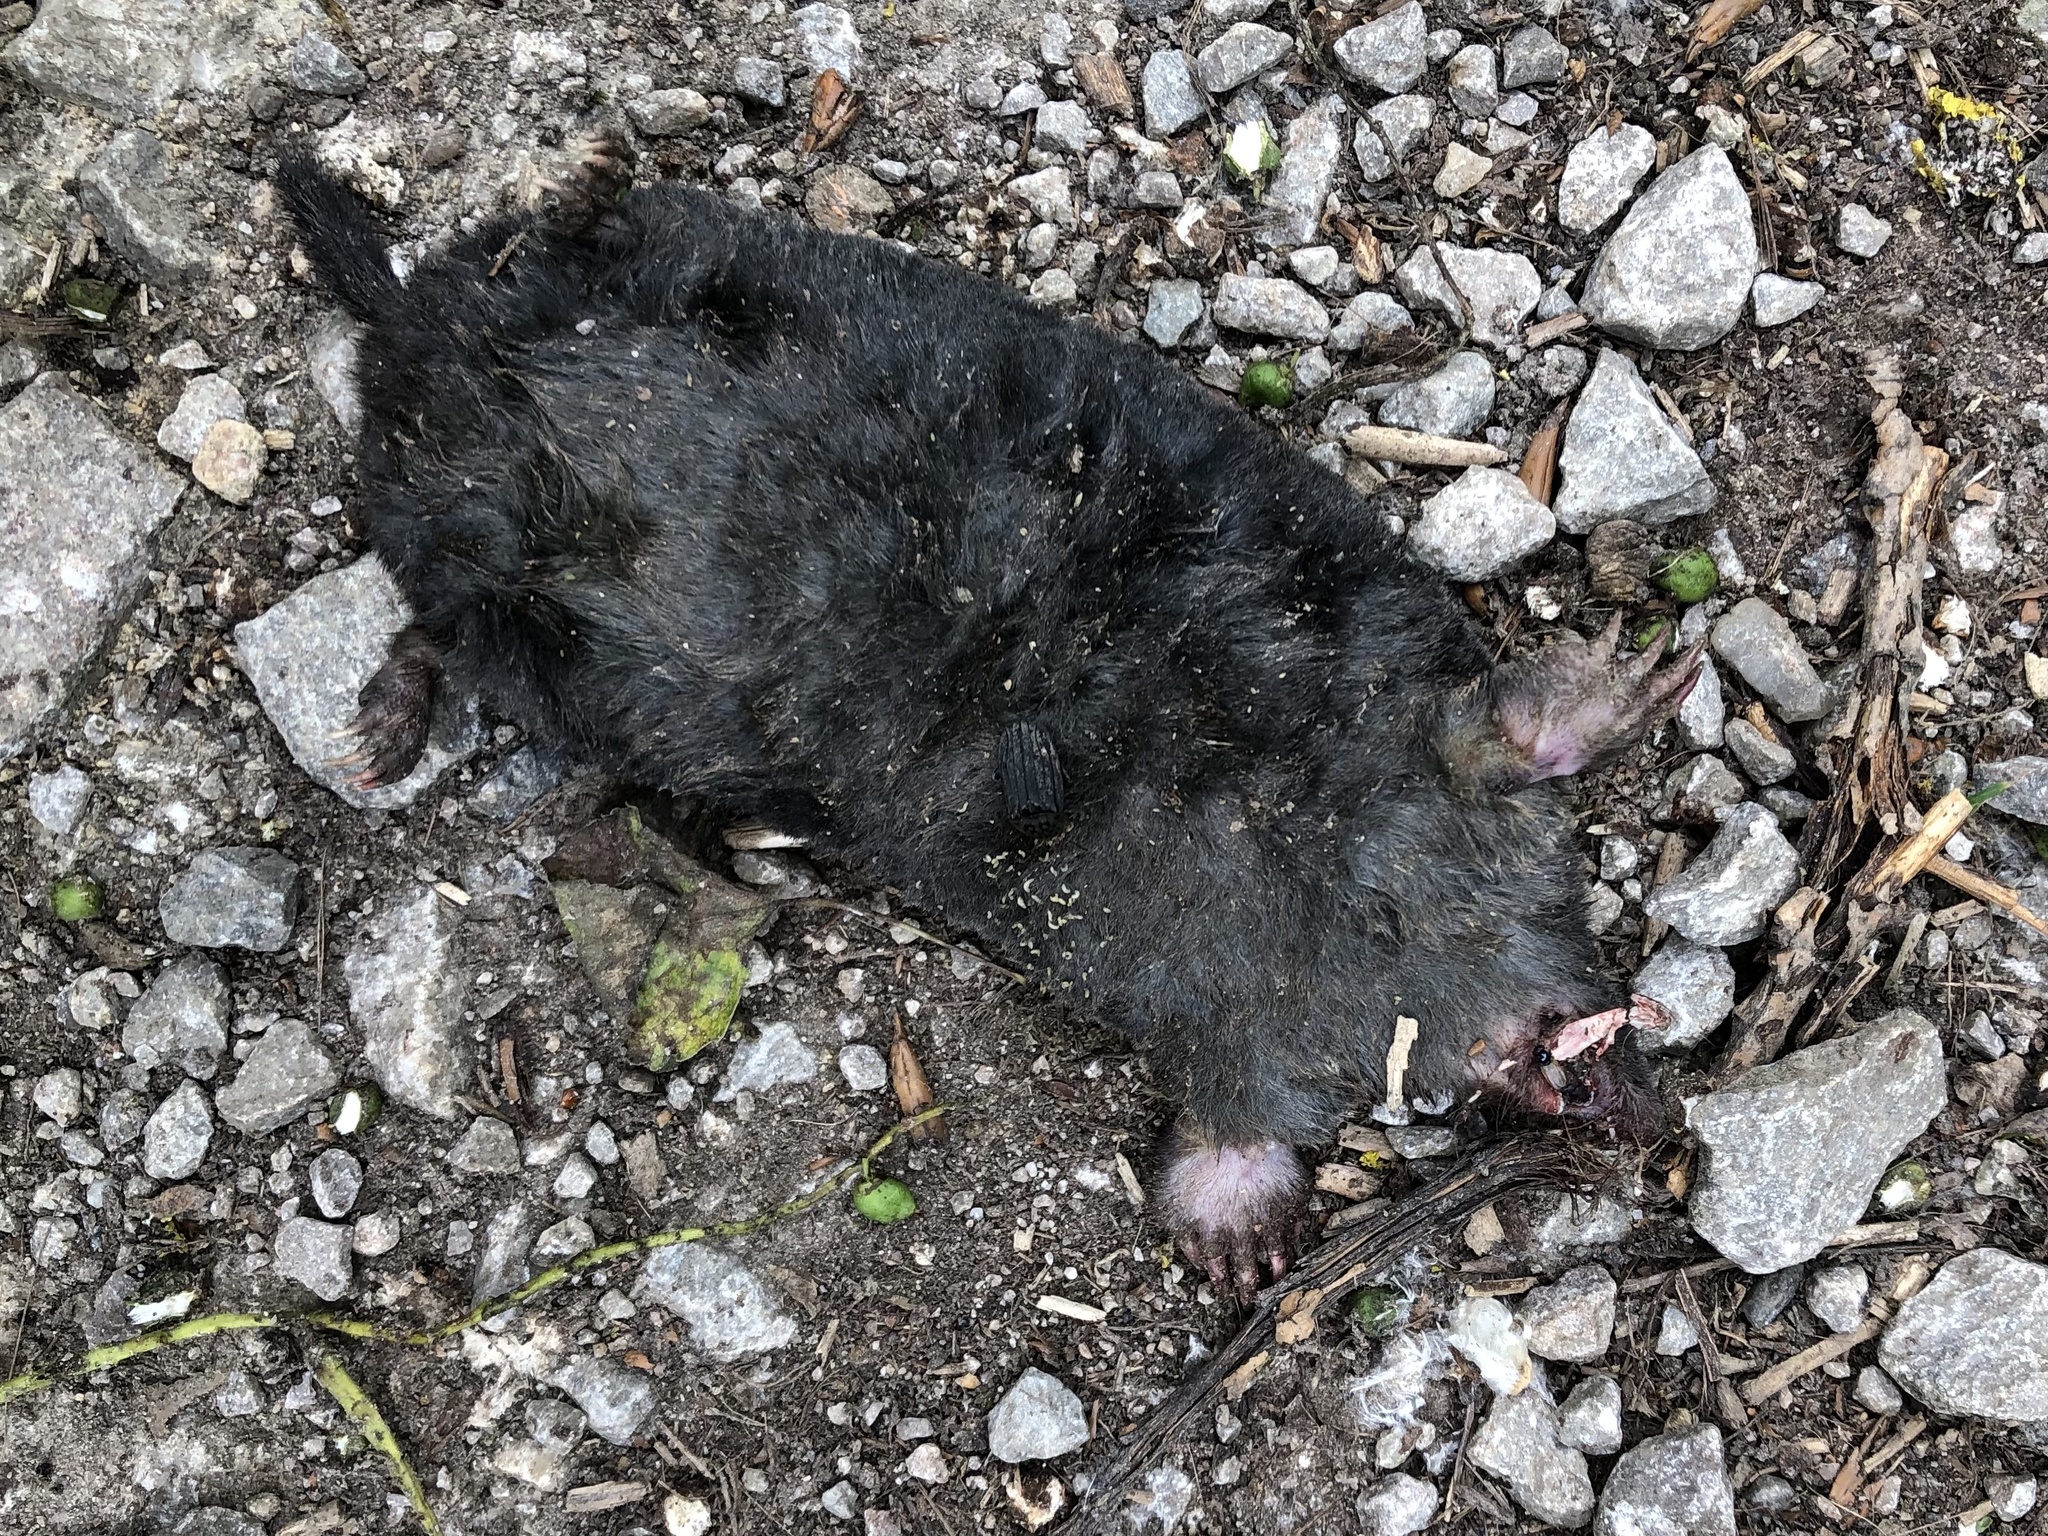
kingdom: Animalia
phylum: Chordata
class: Mammalia
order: Soricomorpha
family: Talpidae
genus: Talpa
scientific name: Talpa europaea
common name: European mole
